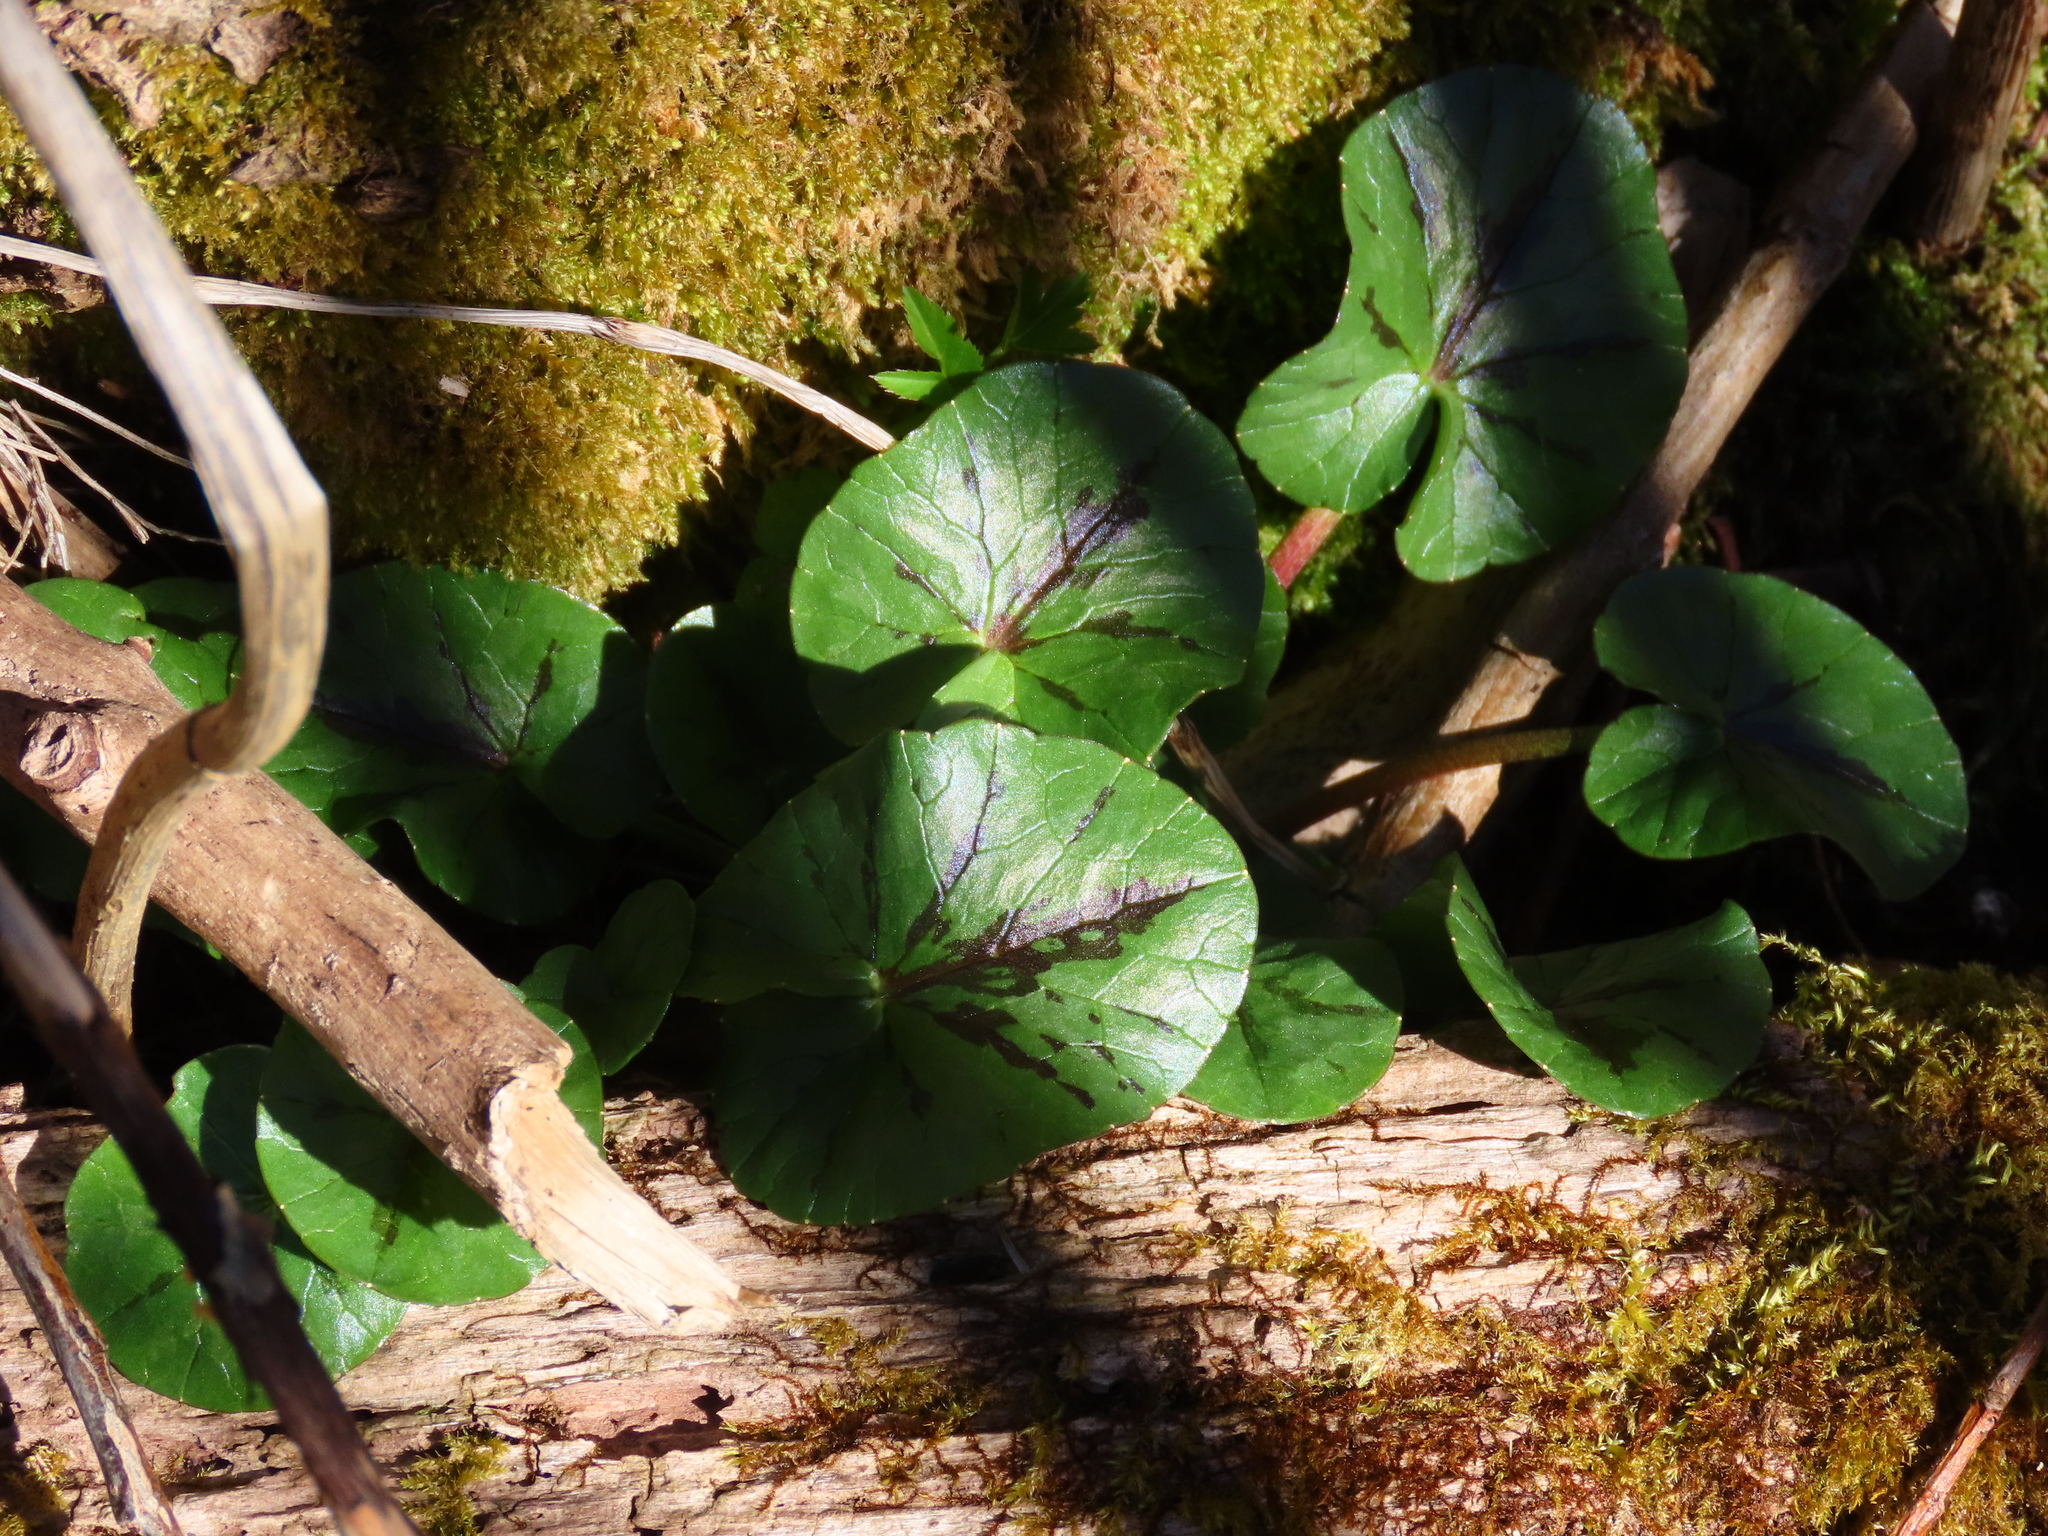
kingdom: Plantae
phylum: Tracheophyta
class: Magnoliopsida
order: Ranunculales
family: Ranunculaceae
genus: Ficaria
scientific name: Ficaria verna
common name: Lesser celandine
